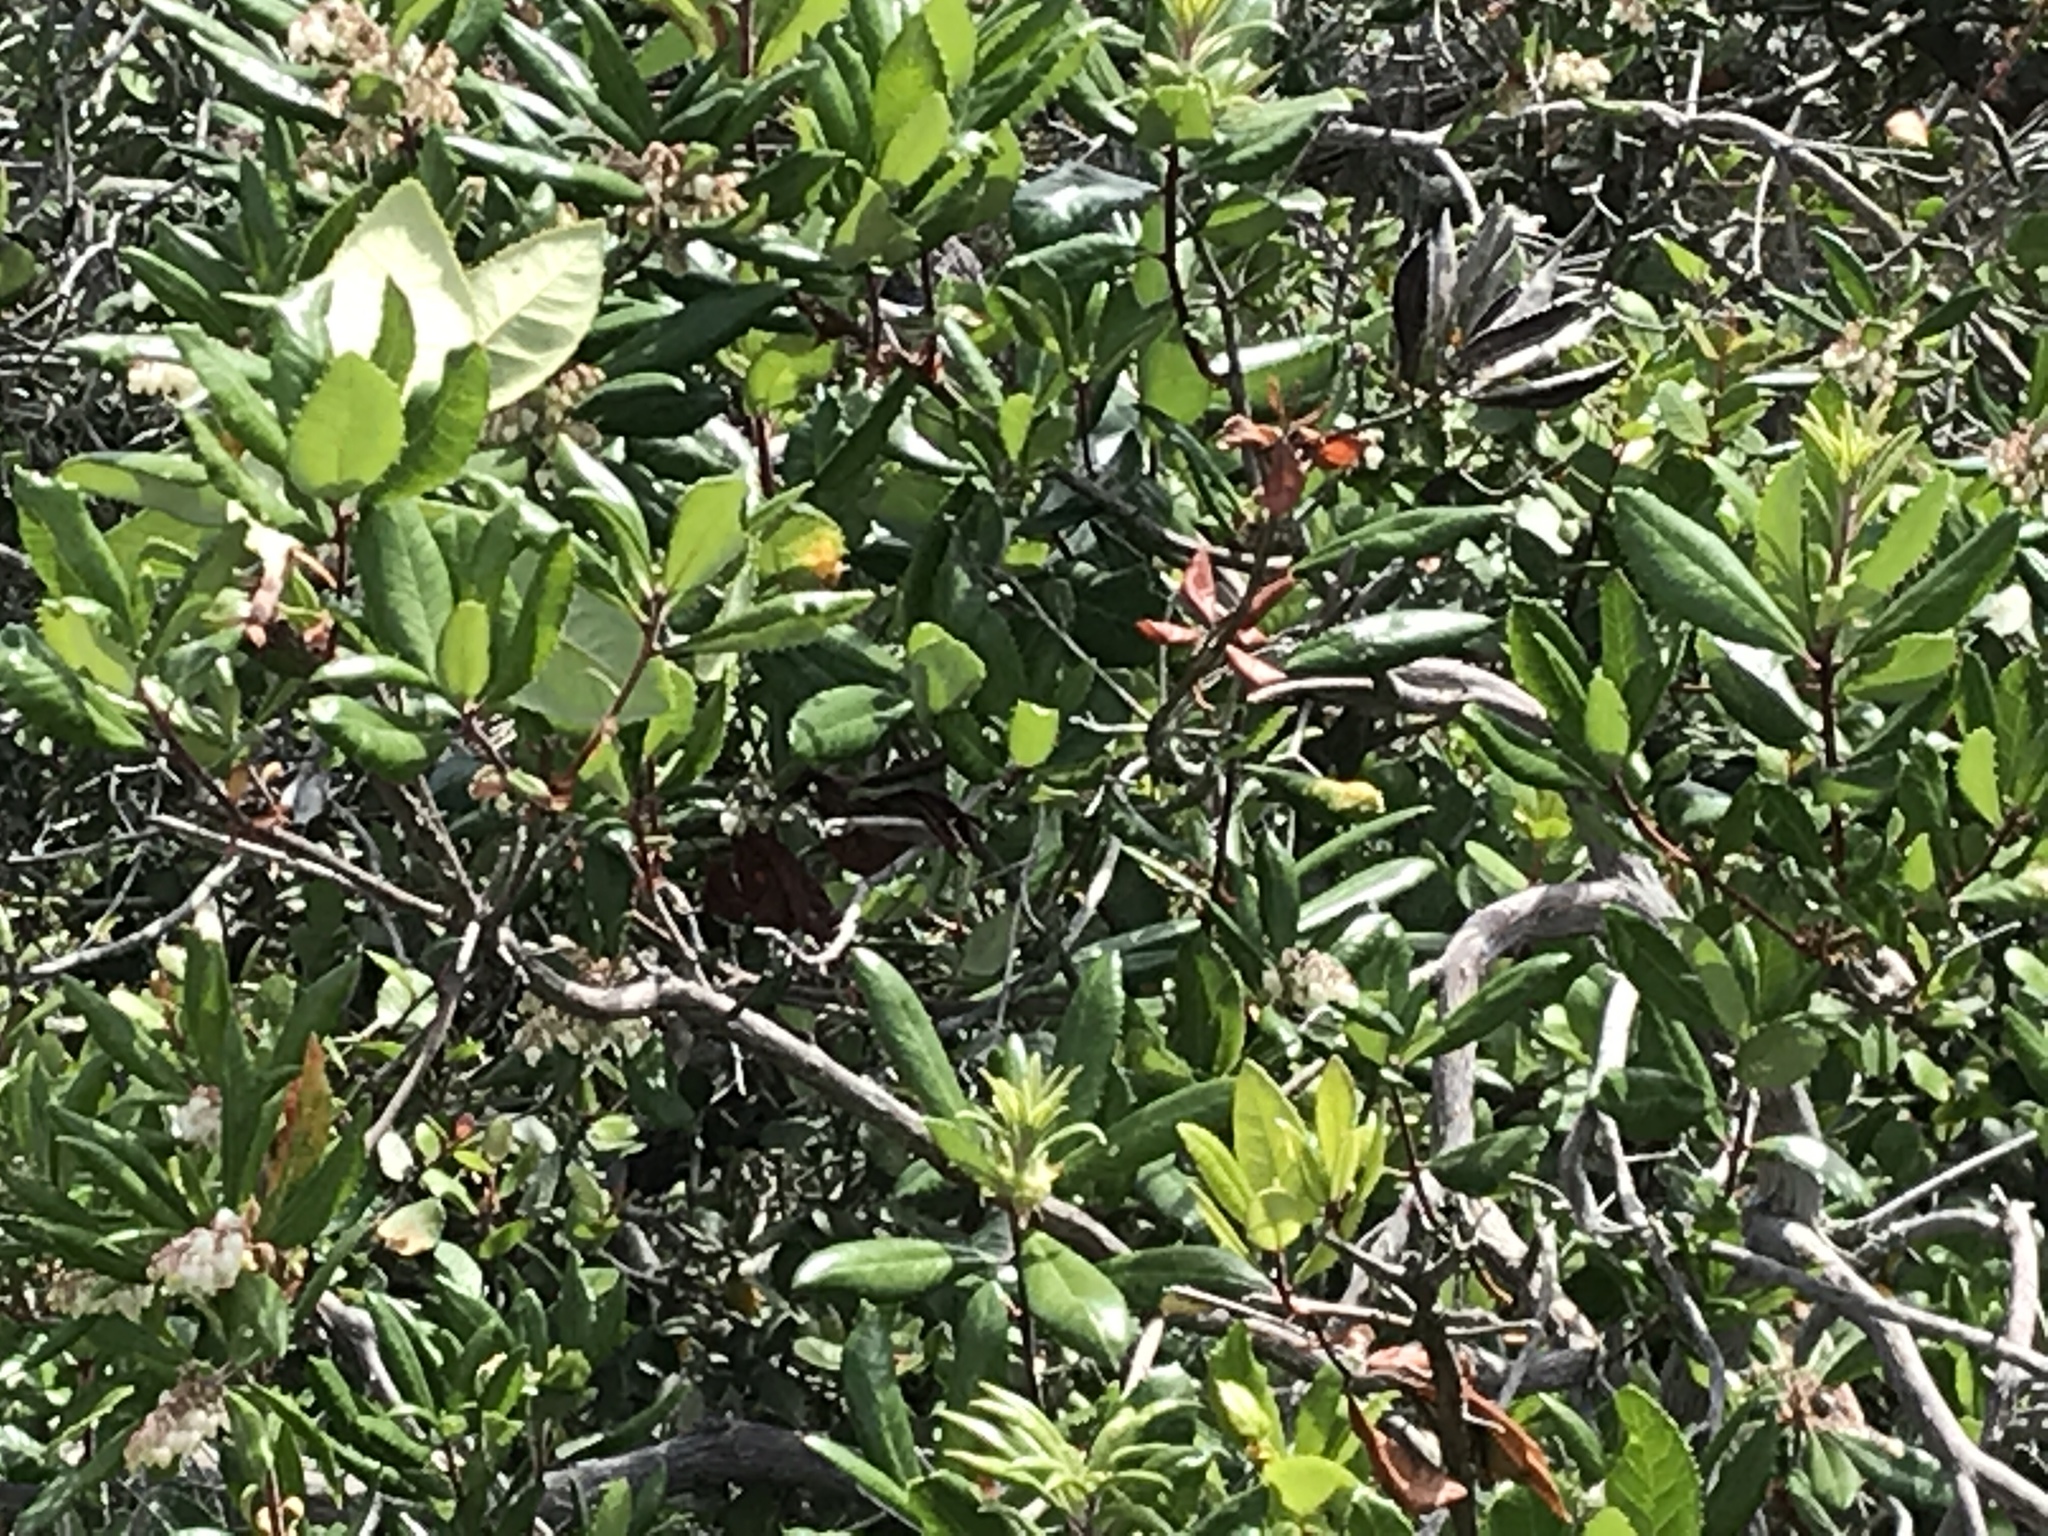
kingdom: Plantae
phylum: Tracheophyta
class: Magnoliopsida
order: Ericales
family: Ericaceae
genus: Comarostaphylis
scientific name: Comarostaphylis diversifolia
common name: Summer-holly
